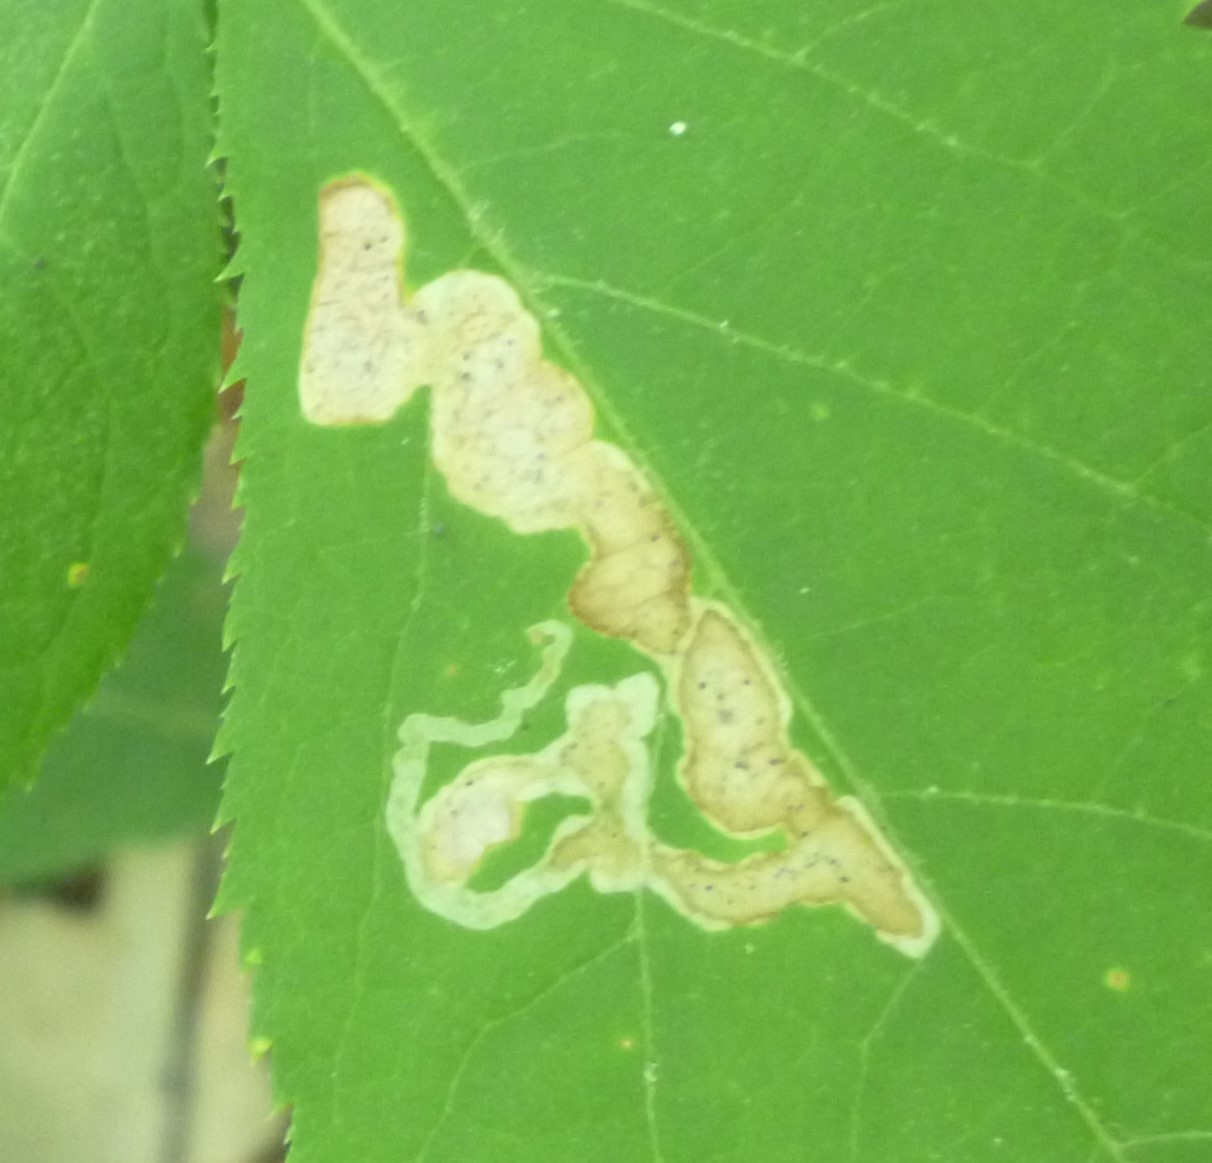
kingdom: Animalia
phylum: Arthropoda
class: Insecta
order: Diptera
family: Agromyzidae
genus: Phytomyza
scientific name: Phytomyza aralivora
